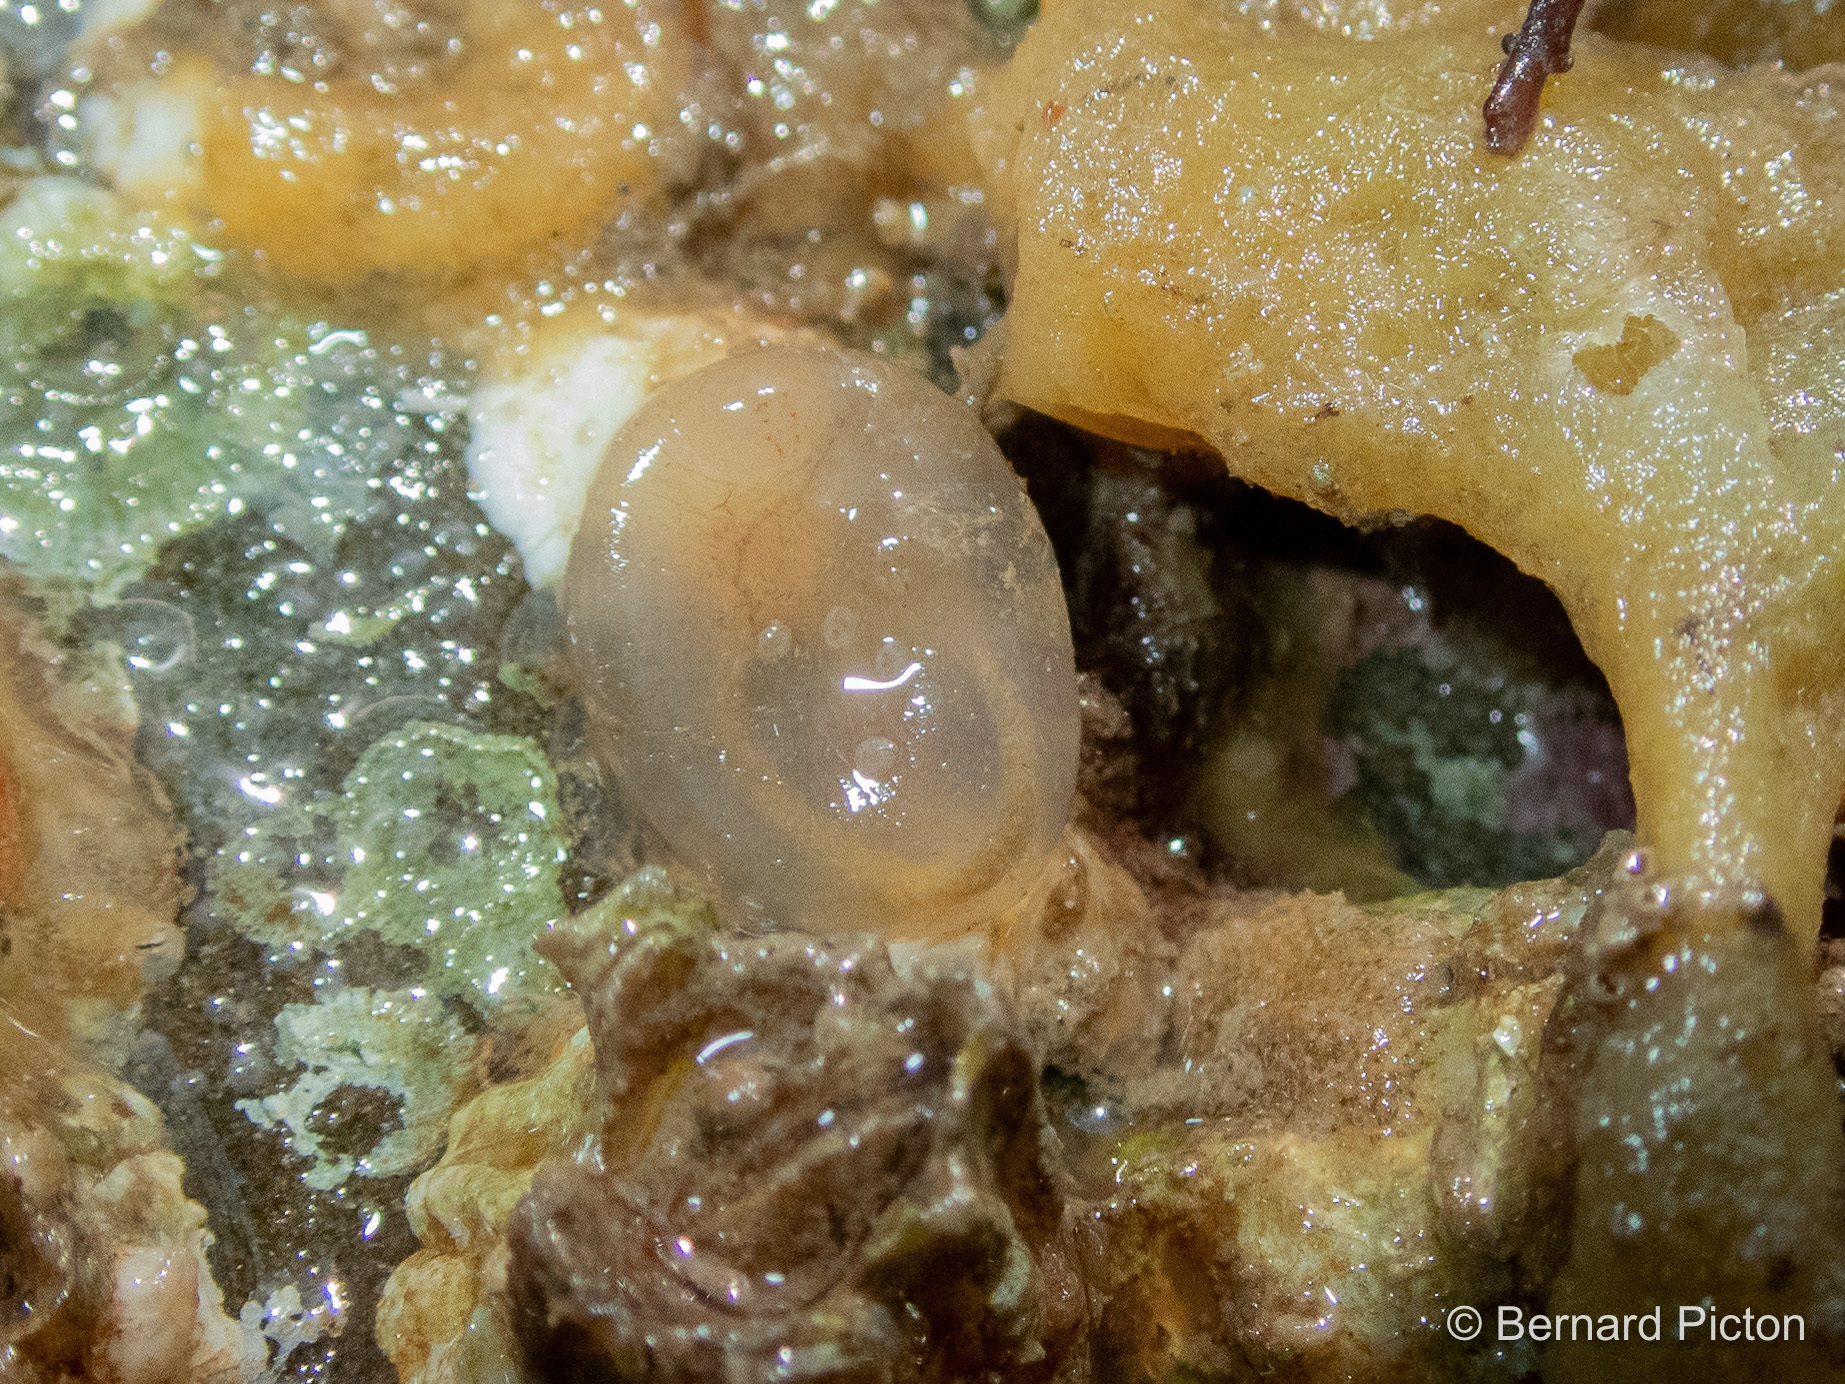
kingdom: Animalia
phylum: Chordata
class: Ascidiacea
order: Phlebobranchia
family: Corellidae
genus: Corella
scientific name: Corella eumyota
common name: Orange-tipped sea squirt
